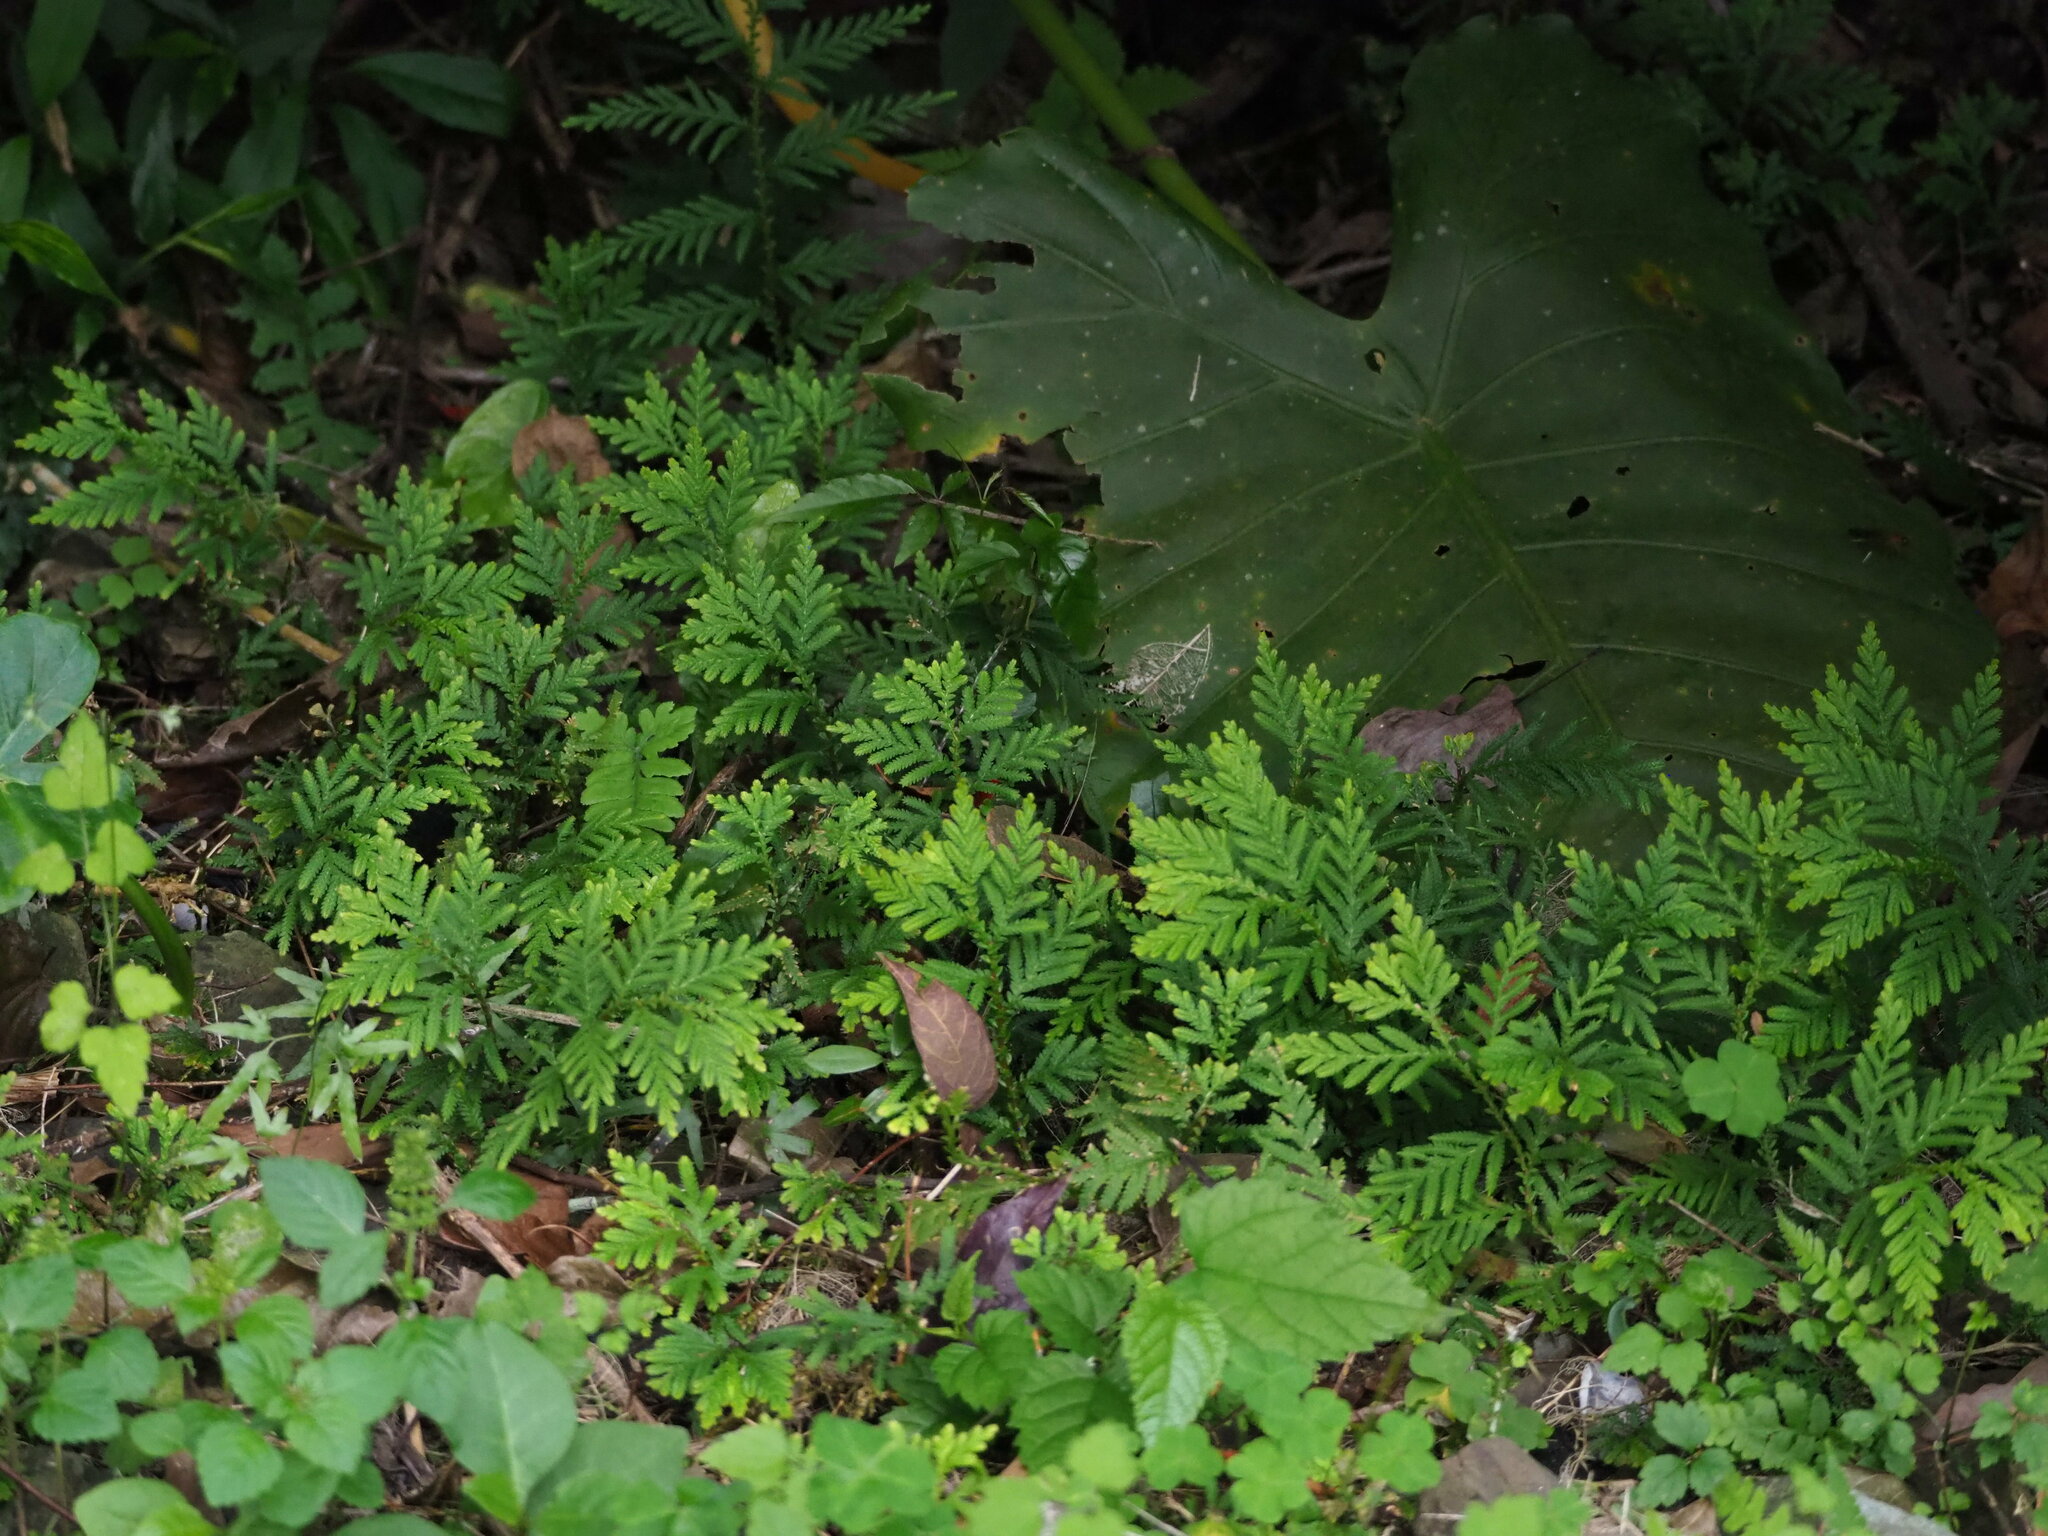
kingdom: Plantae
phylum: Tracheophyta
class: Lycopodiopsida
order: Selaginellales
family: Selaginellaceae
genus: Selaginella
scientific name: Selaginella delicatula
